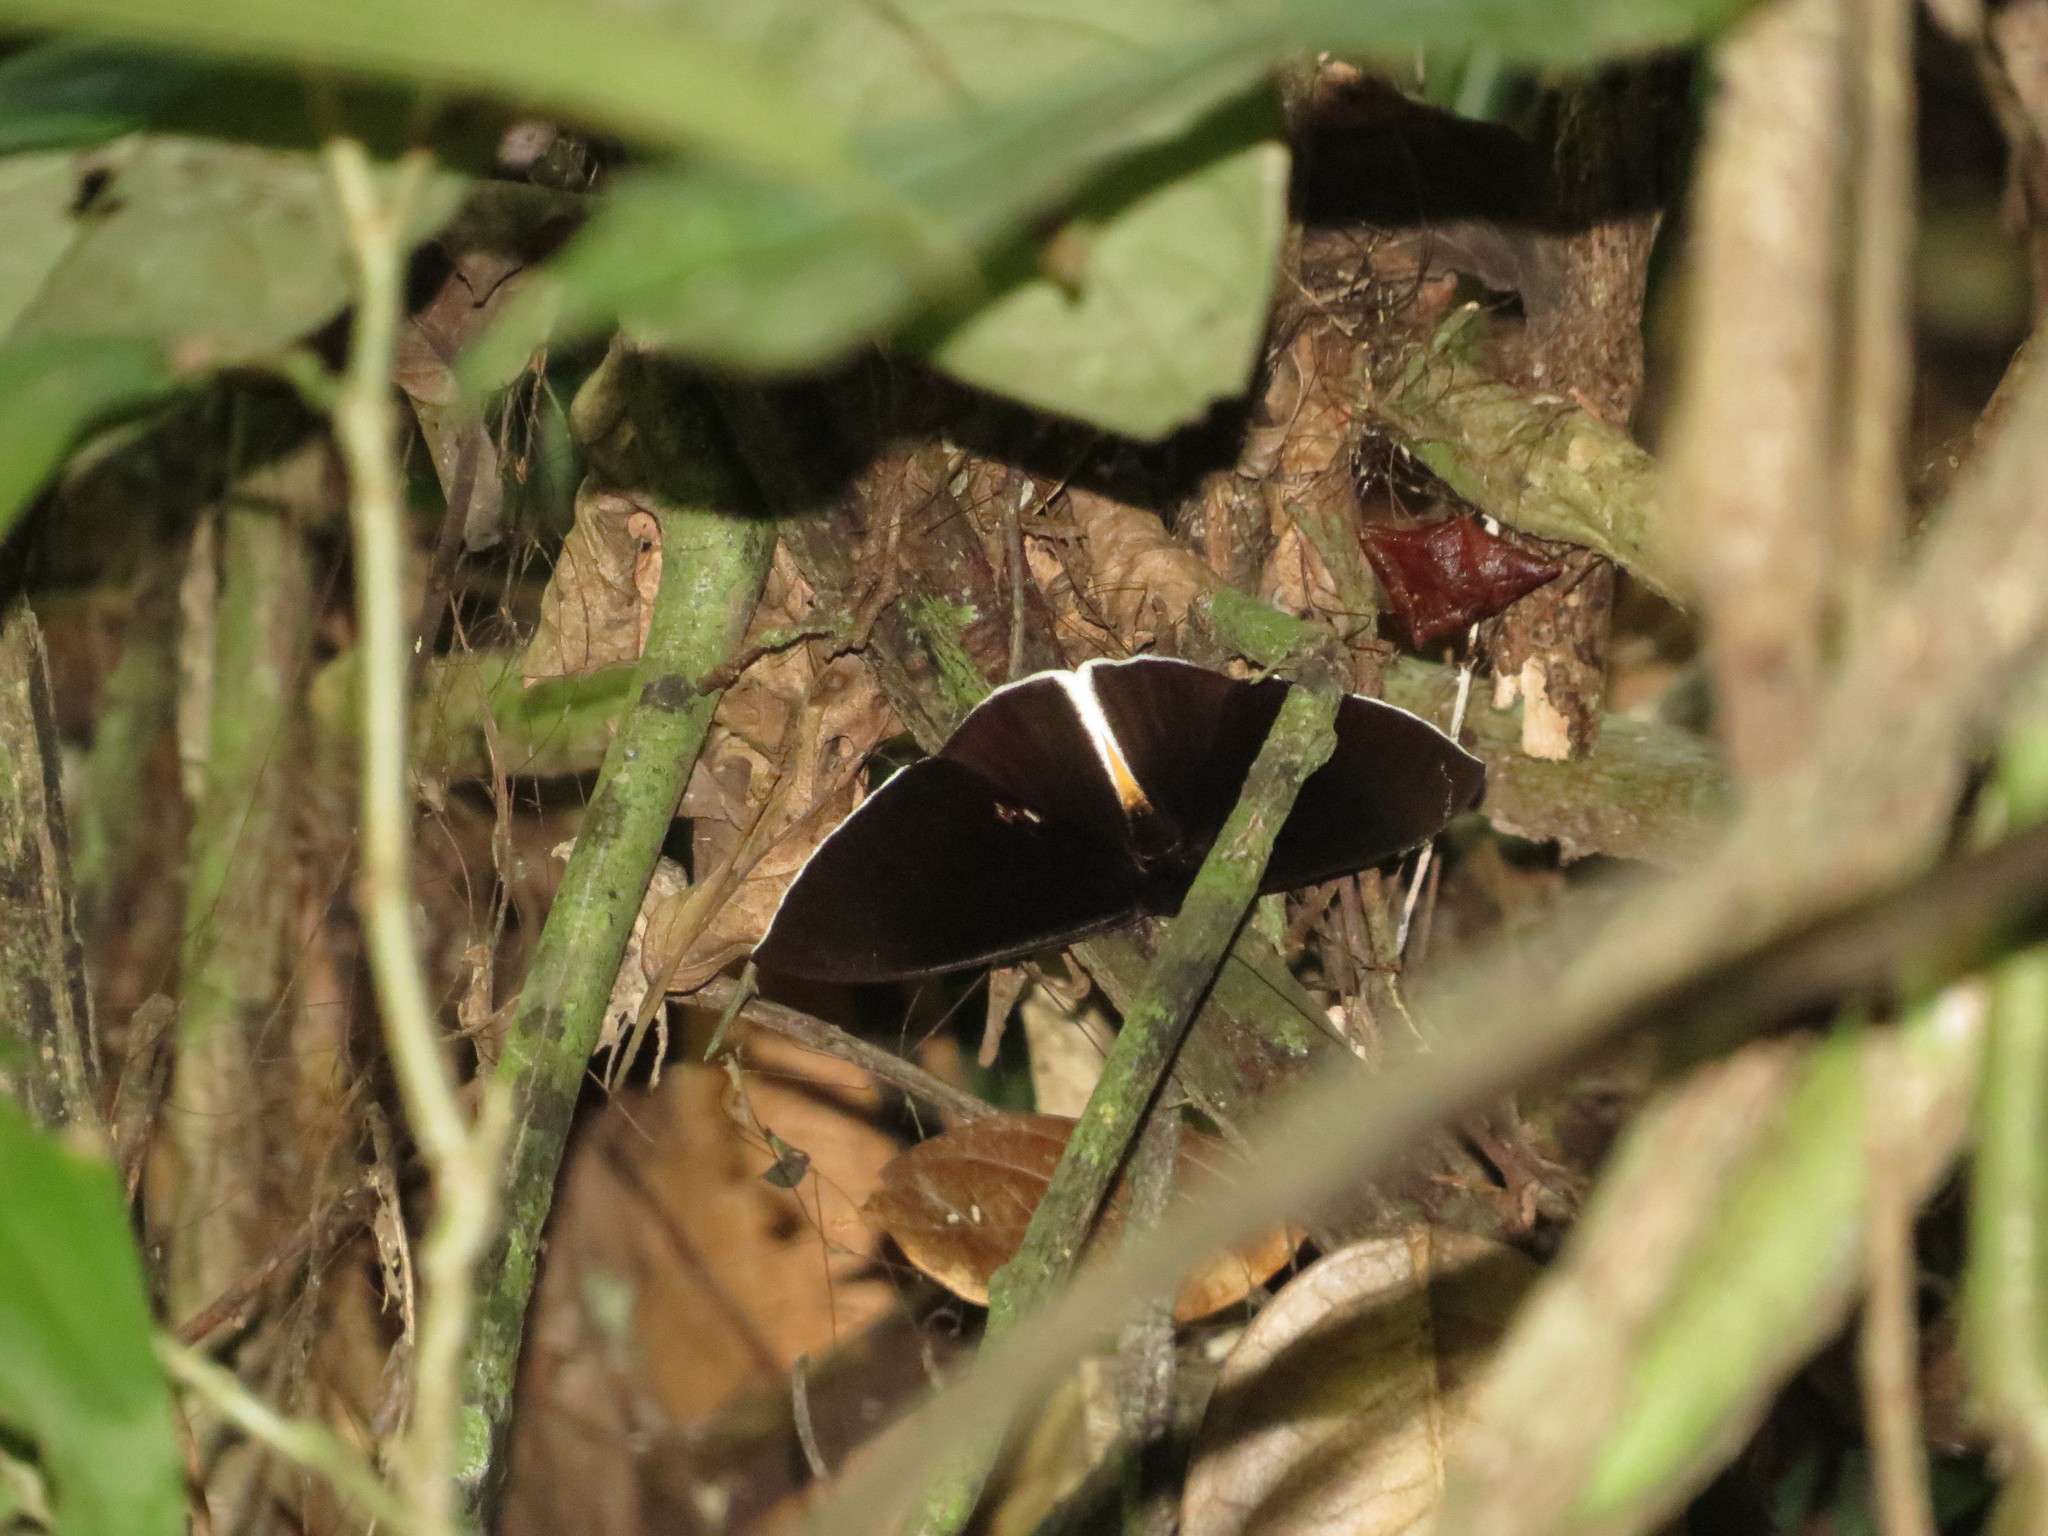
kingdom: Animalia
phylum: Arthropoda
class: Insecta
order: Lepidoptera
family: Erebidae
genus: Lygniodes
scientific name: Lygniodes endoleucus
